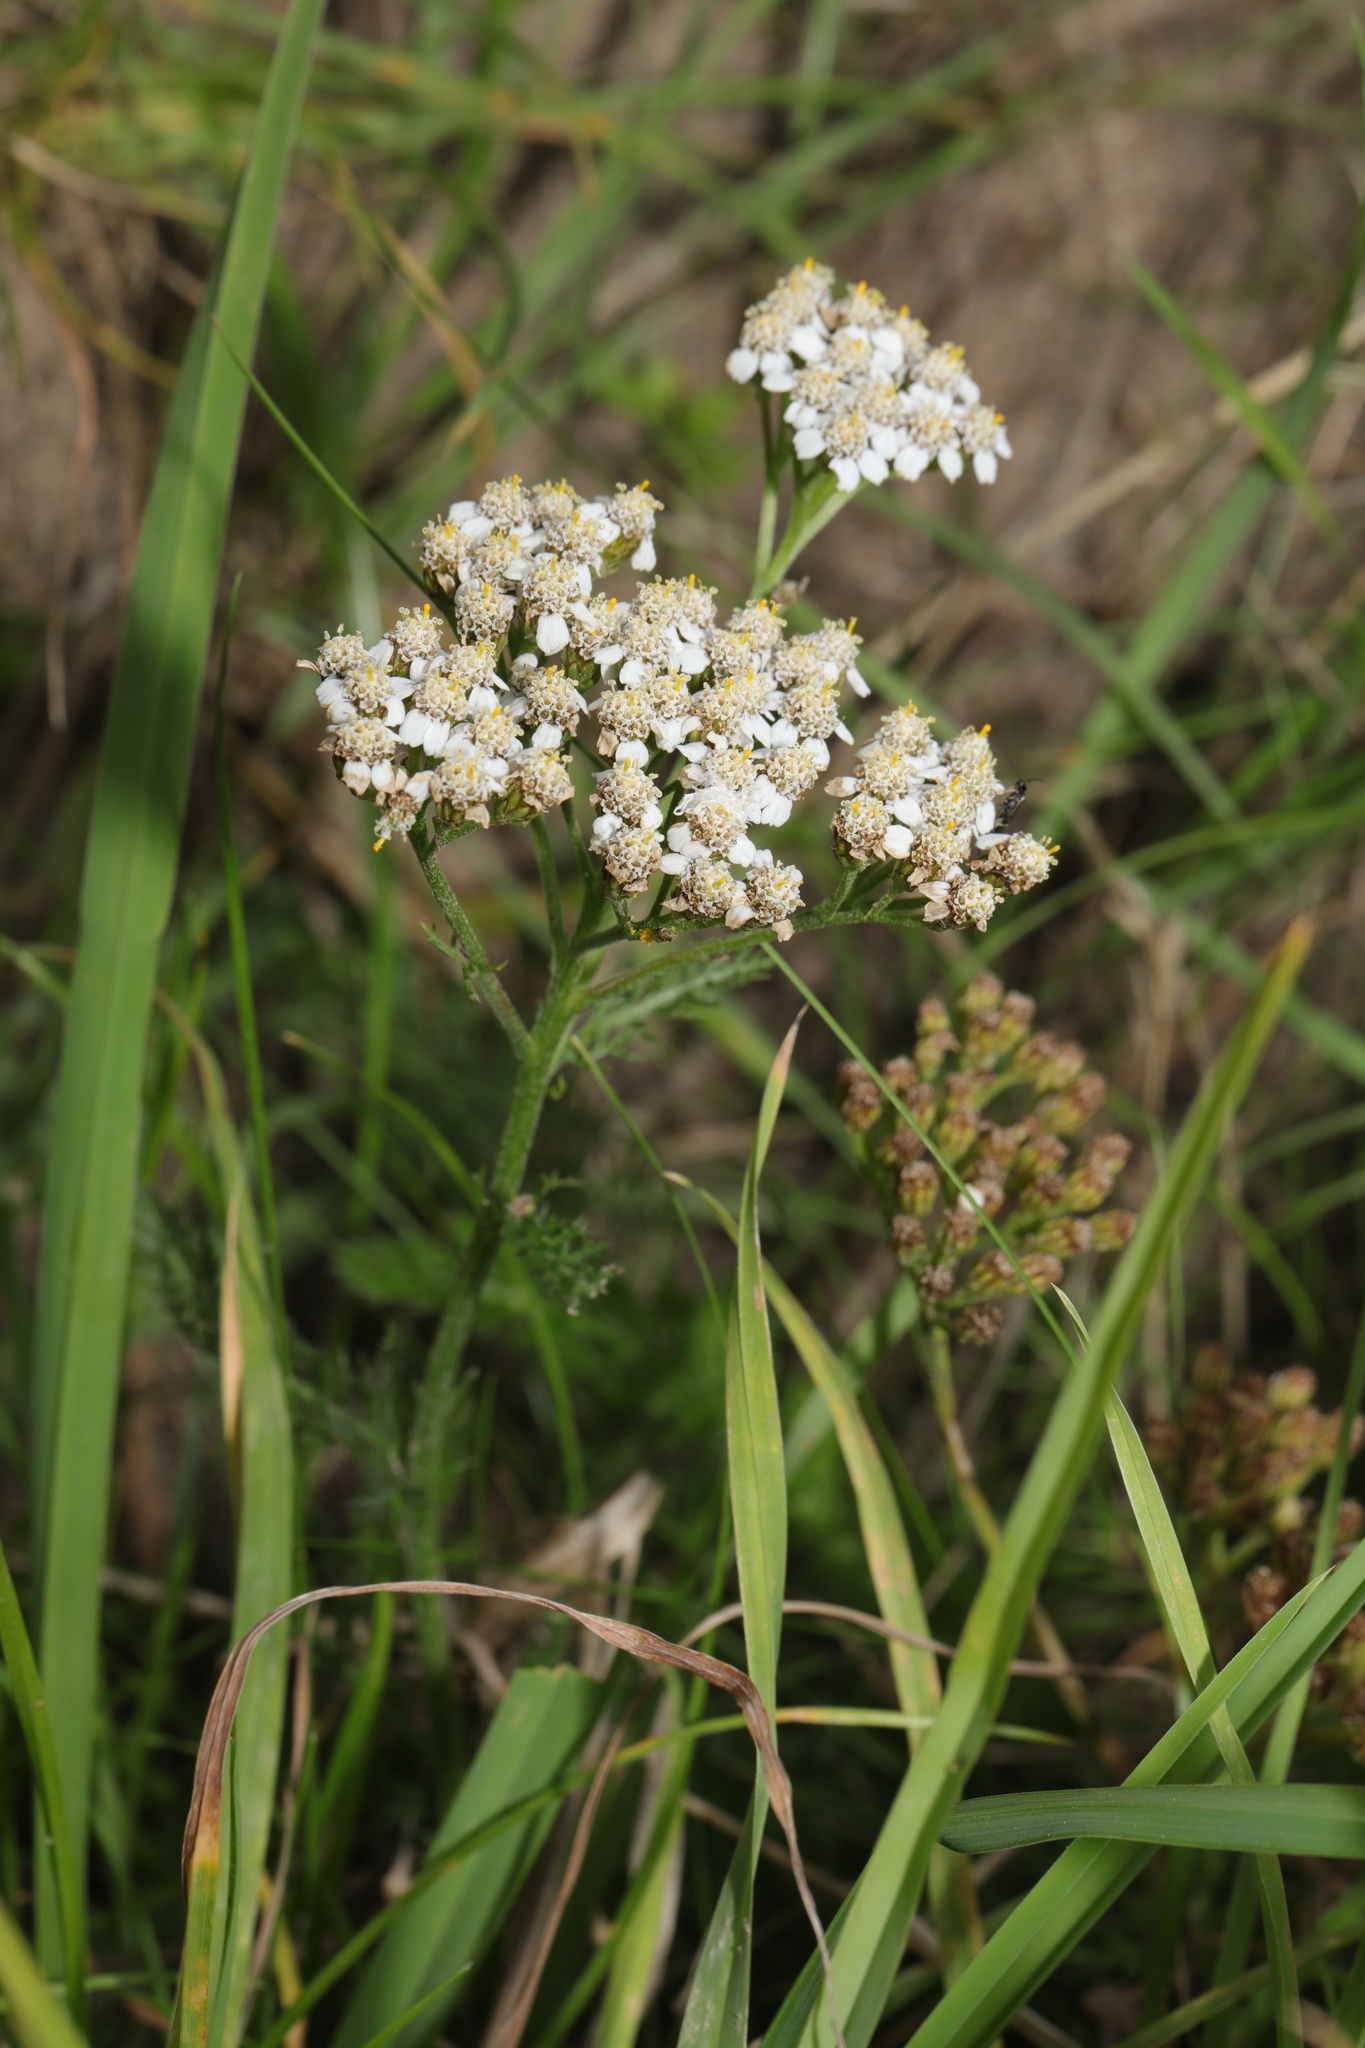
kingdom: Plantae
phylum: Tracheophyta
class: Magnoliopsida
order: Asterales
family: Asteraceae
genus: Achillea
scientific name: Achillea millefolium
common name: Yarrow
